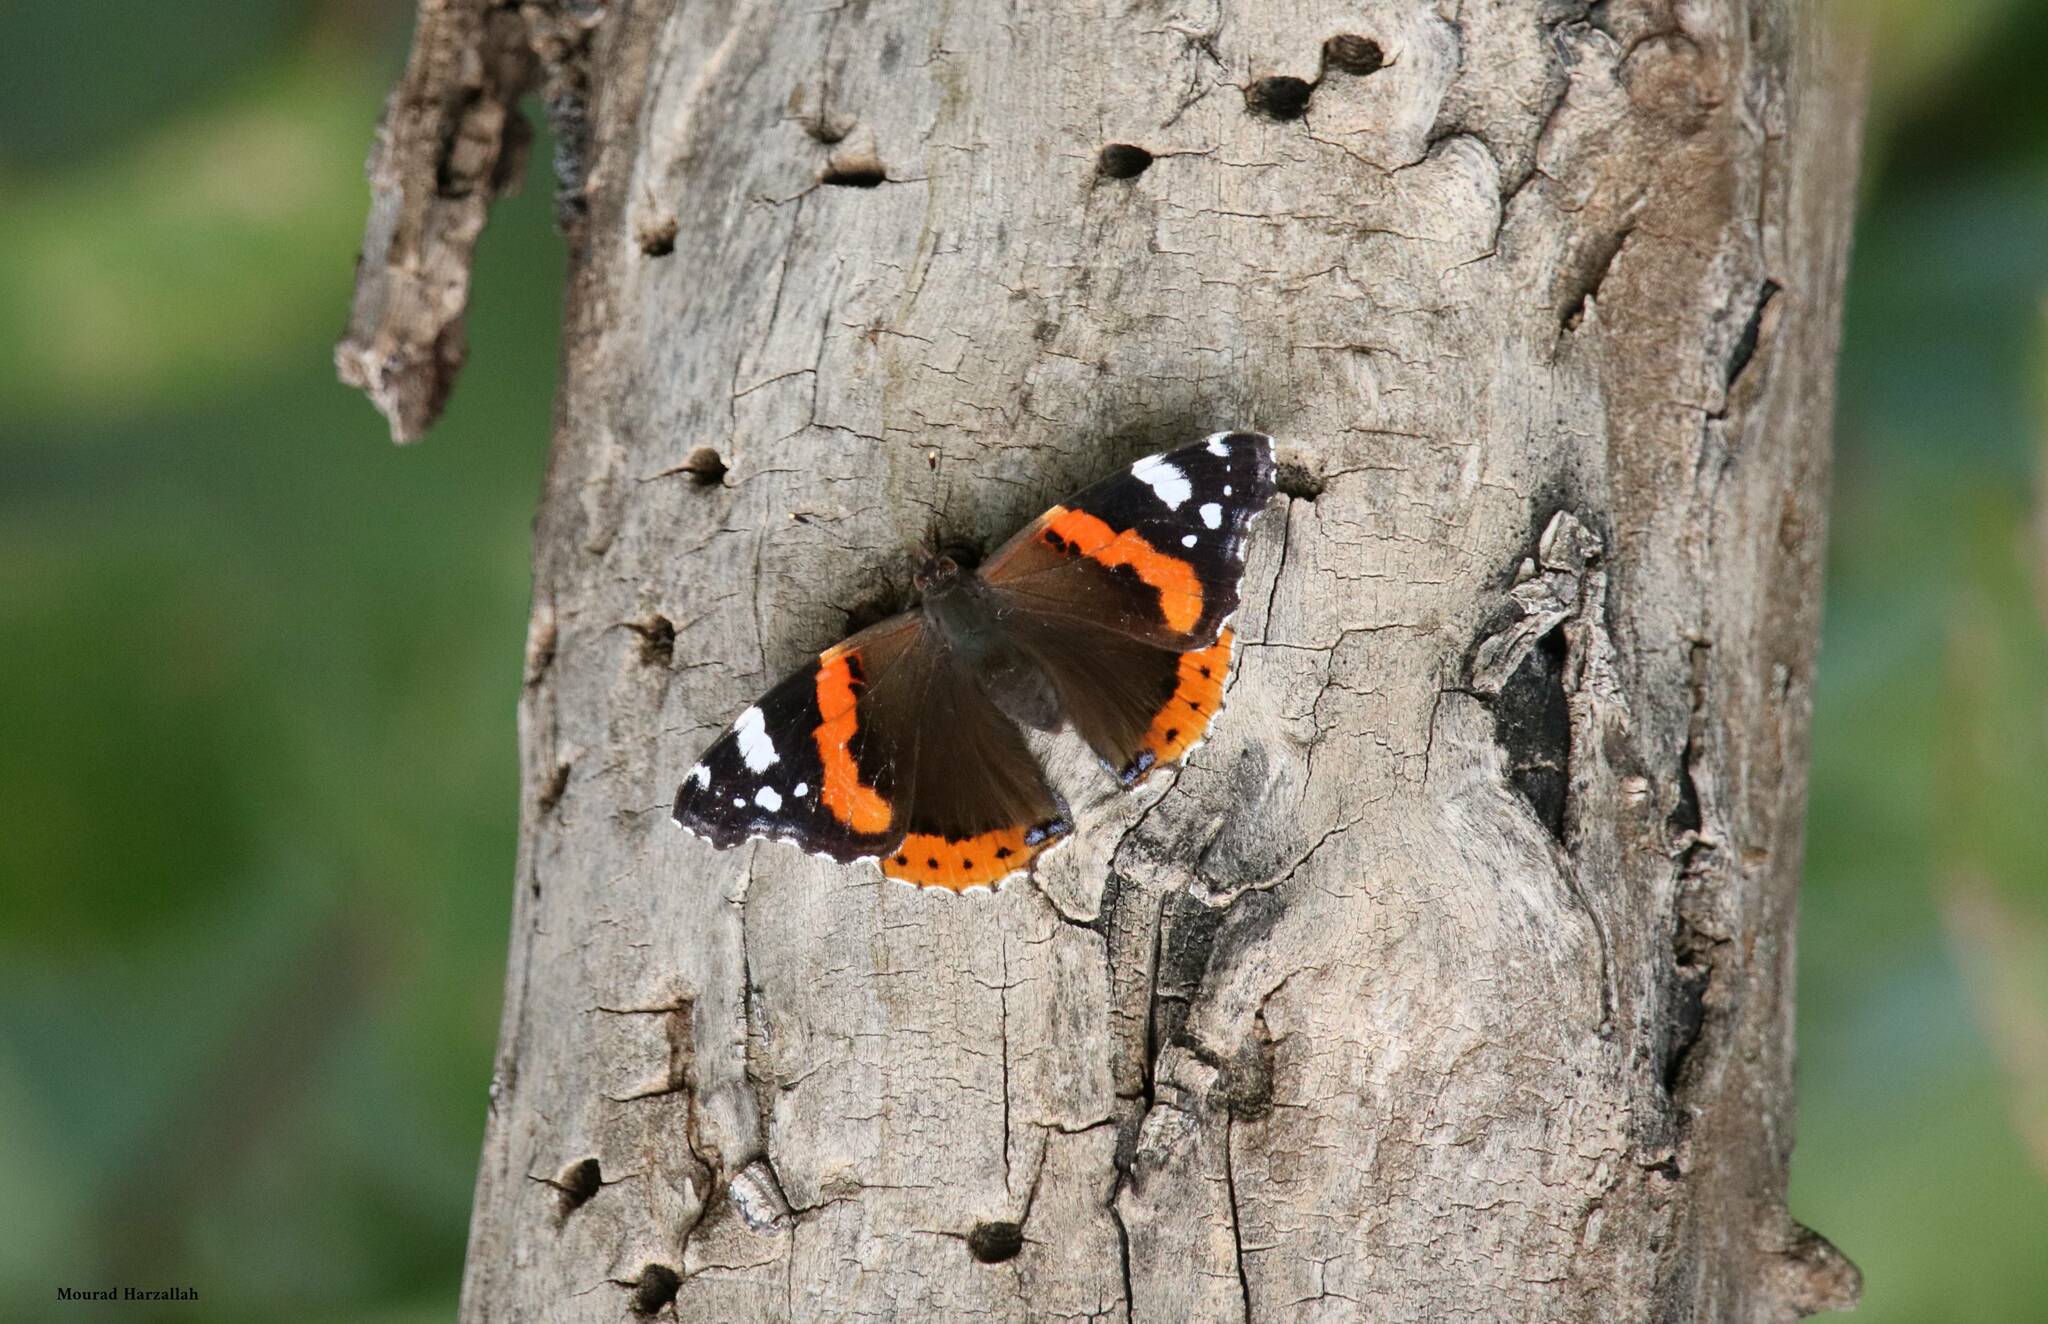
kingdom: Animalia
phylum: Arthropoda
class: Insecta
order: Lepidoptera
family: Nymphalidae
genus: Vanessa
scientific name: Vanessa atalanta
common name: Red admiral
